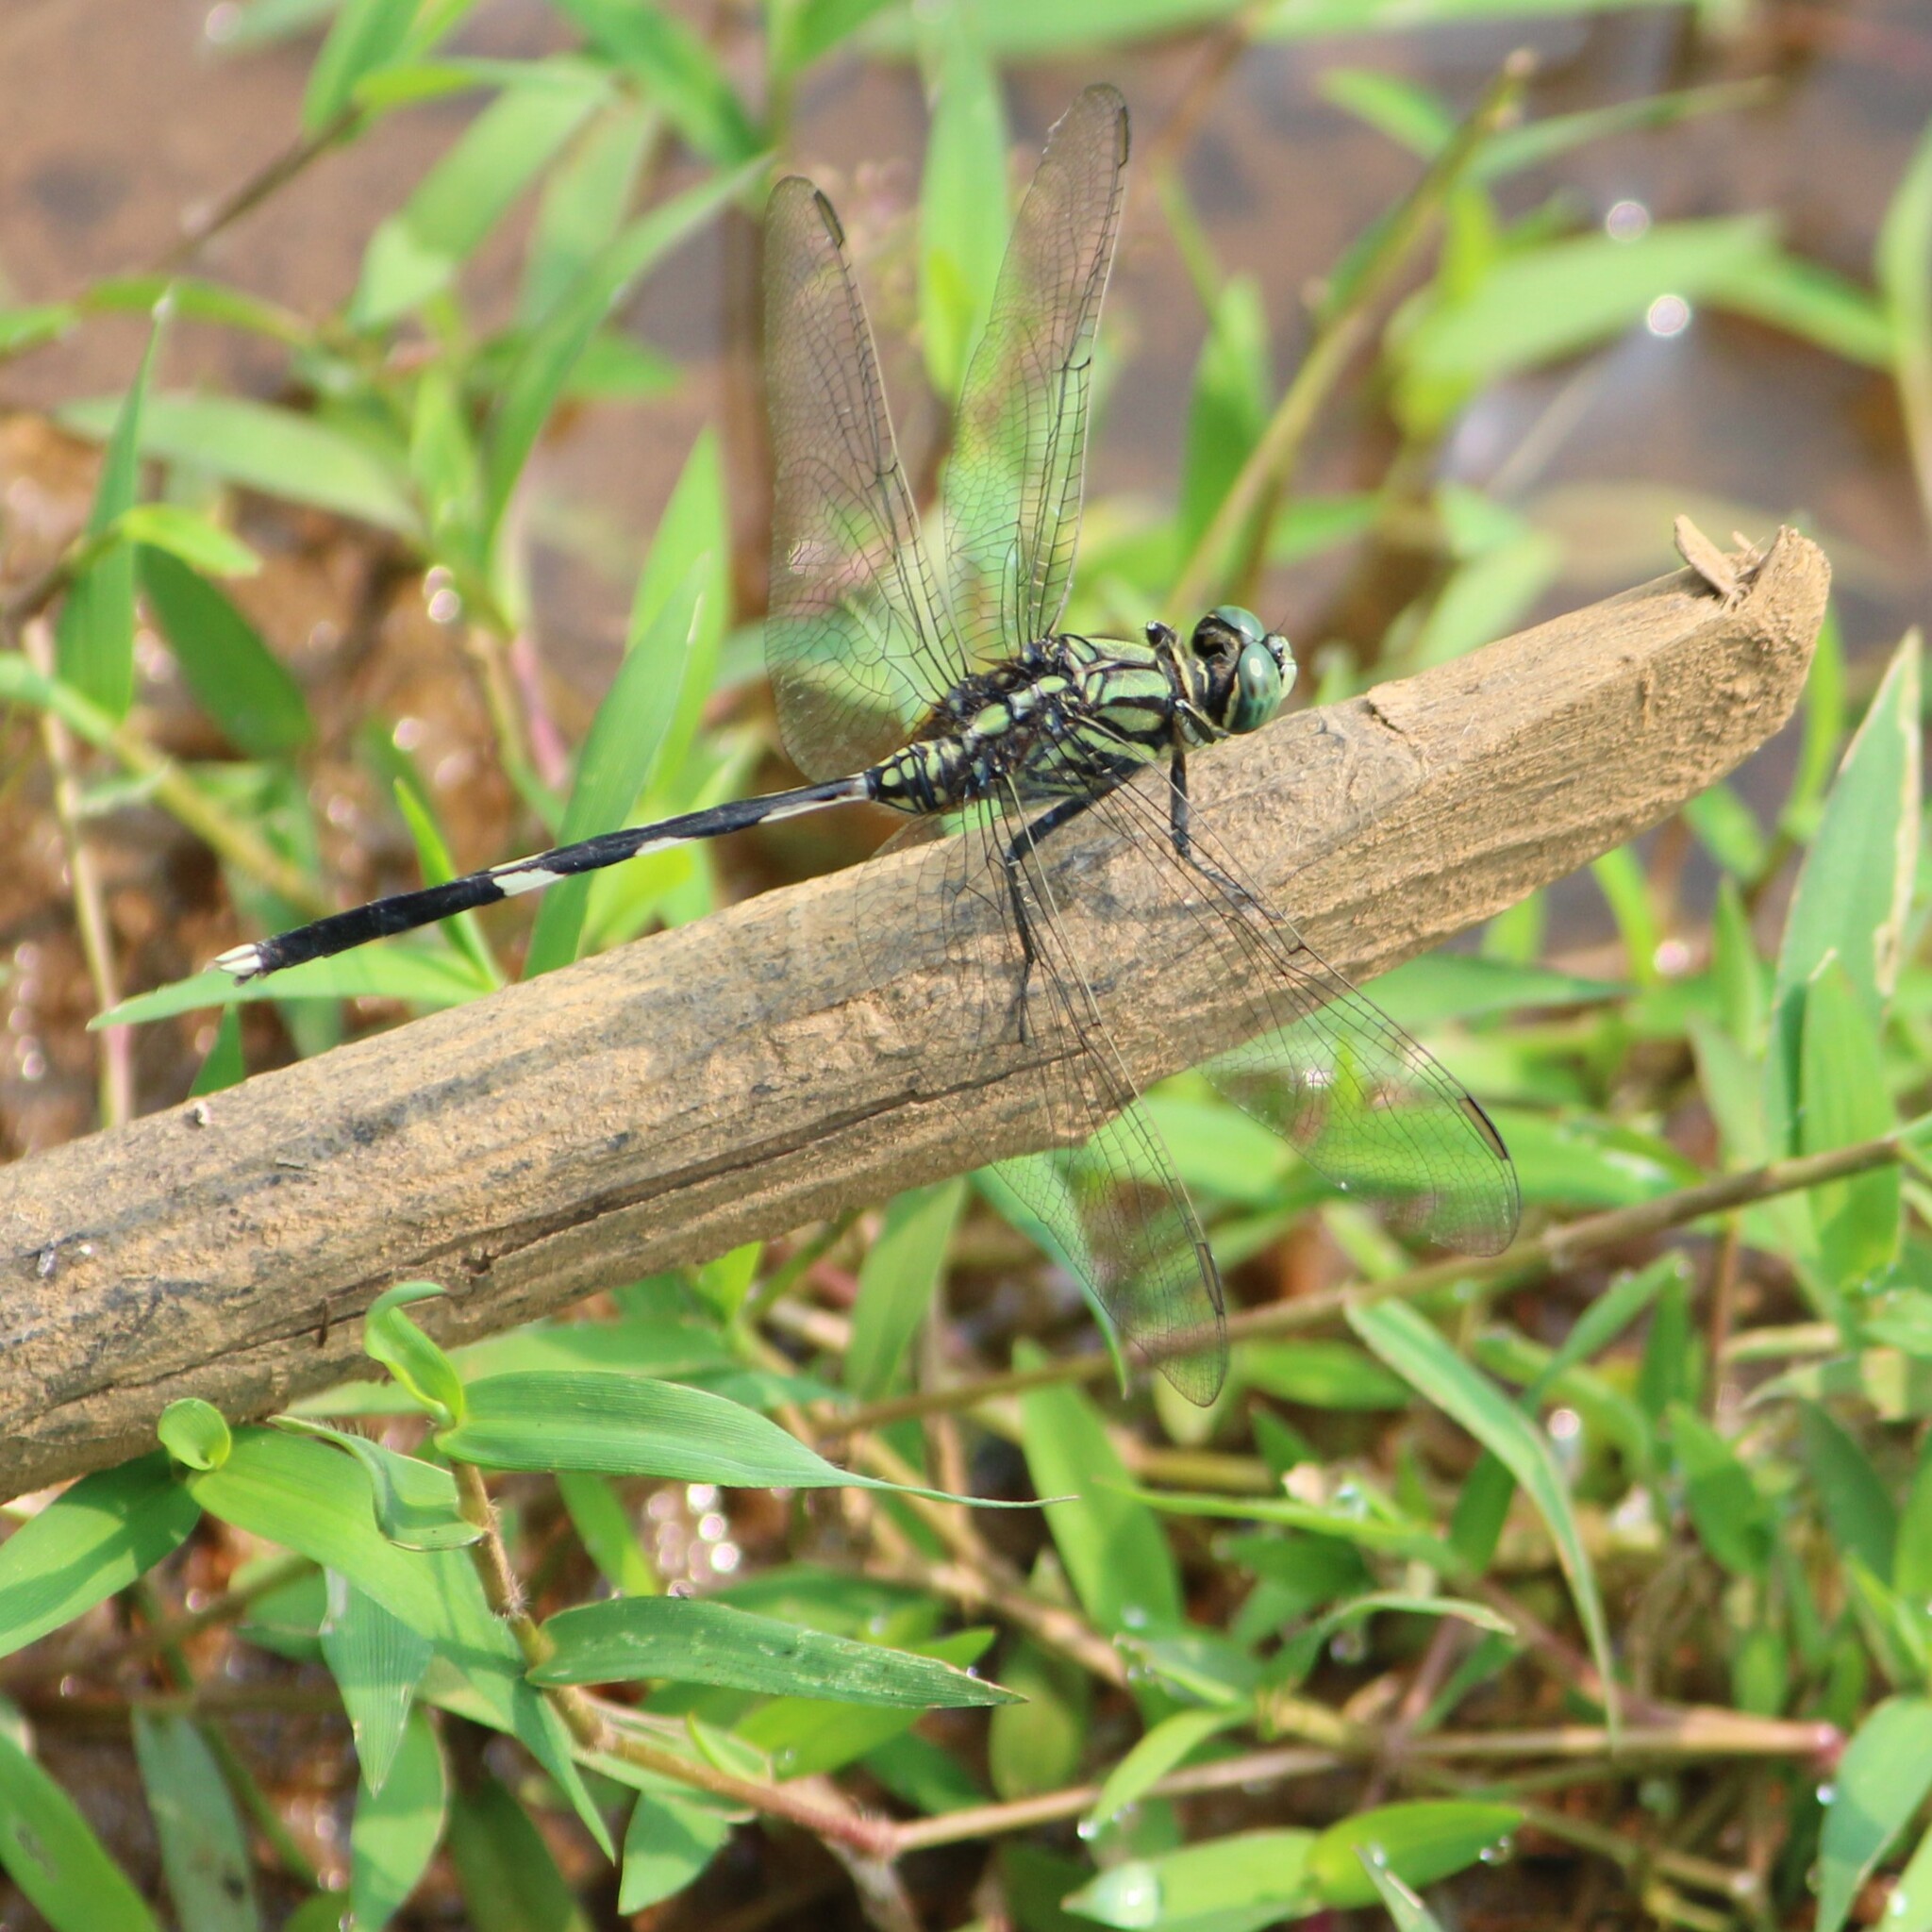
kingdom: Animalia
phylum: Arthropoda
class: Insecta
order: Odonata
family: Libellulidae
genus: Orthetrum
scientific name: Orthetrum sabina
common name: Slender skimmer
